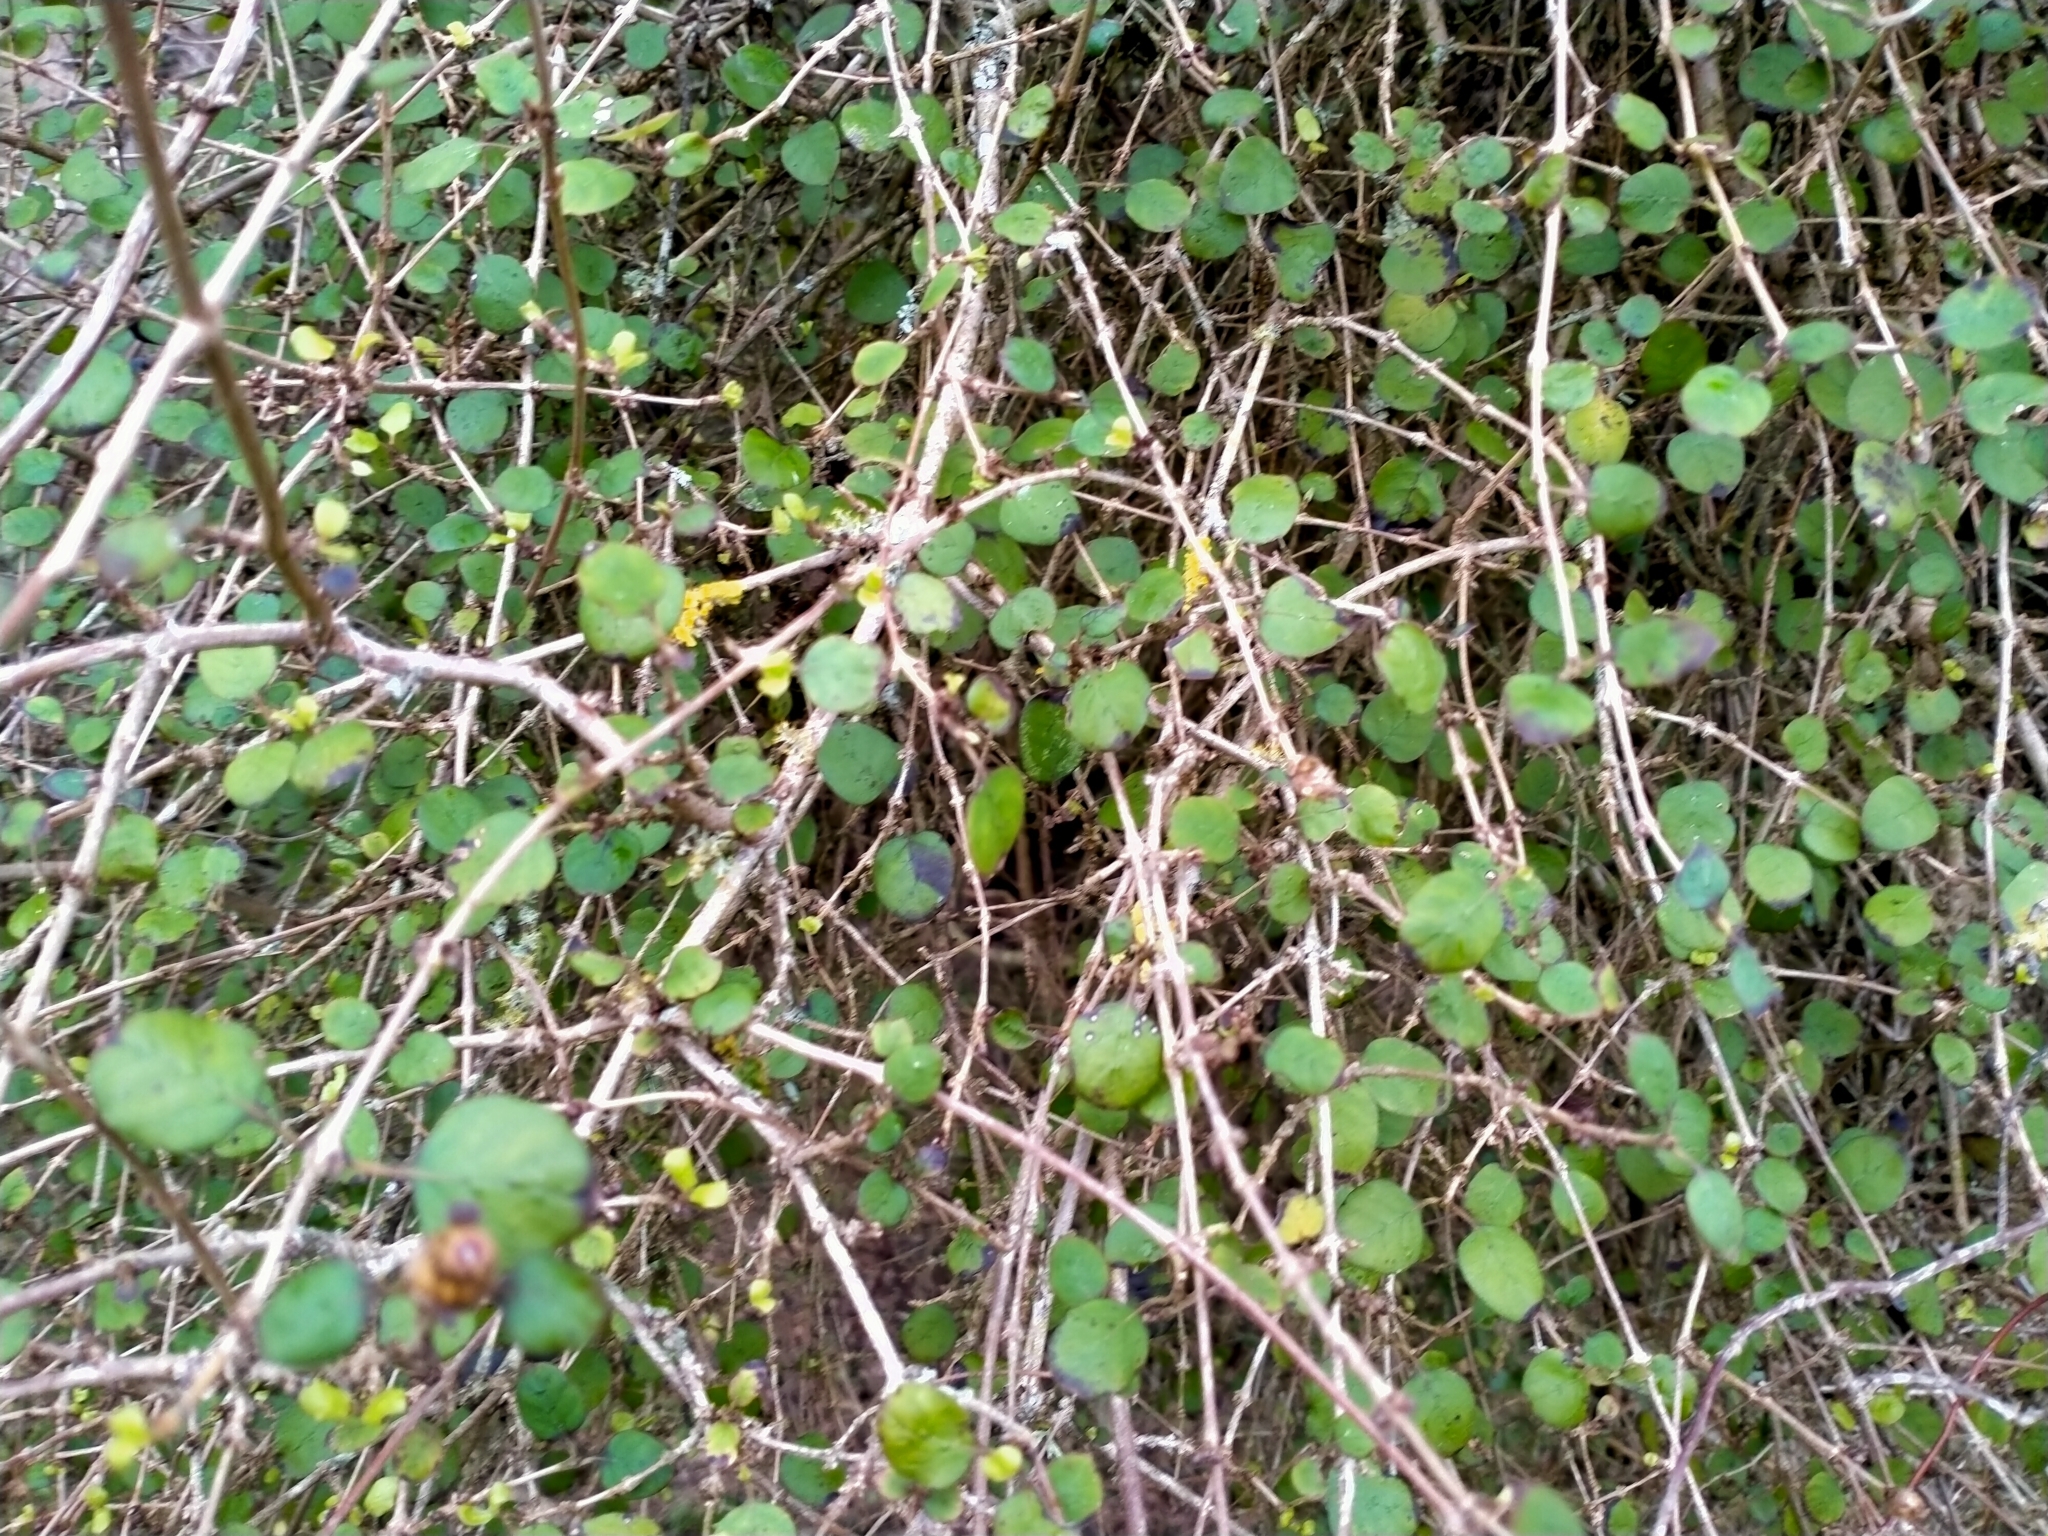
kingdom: Plantae
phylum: Tracheophyta
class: Magnoliopsida
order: Gentianales
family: Rubiaceae
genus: Coprosma
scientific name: Coprosma rotundifolia
